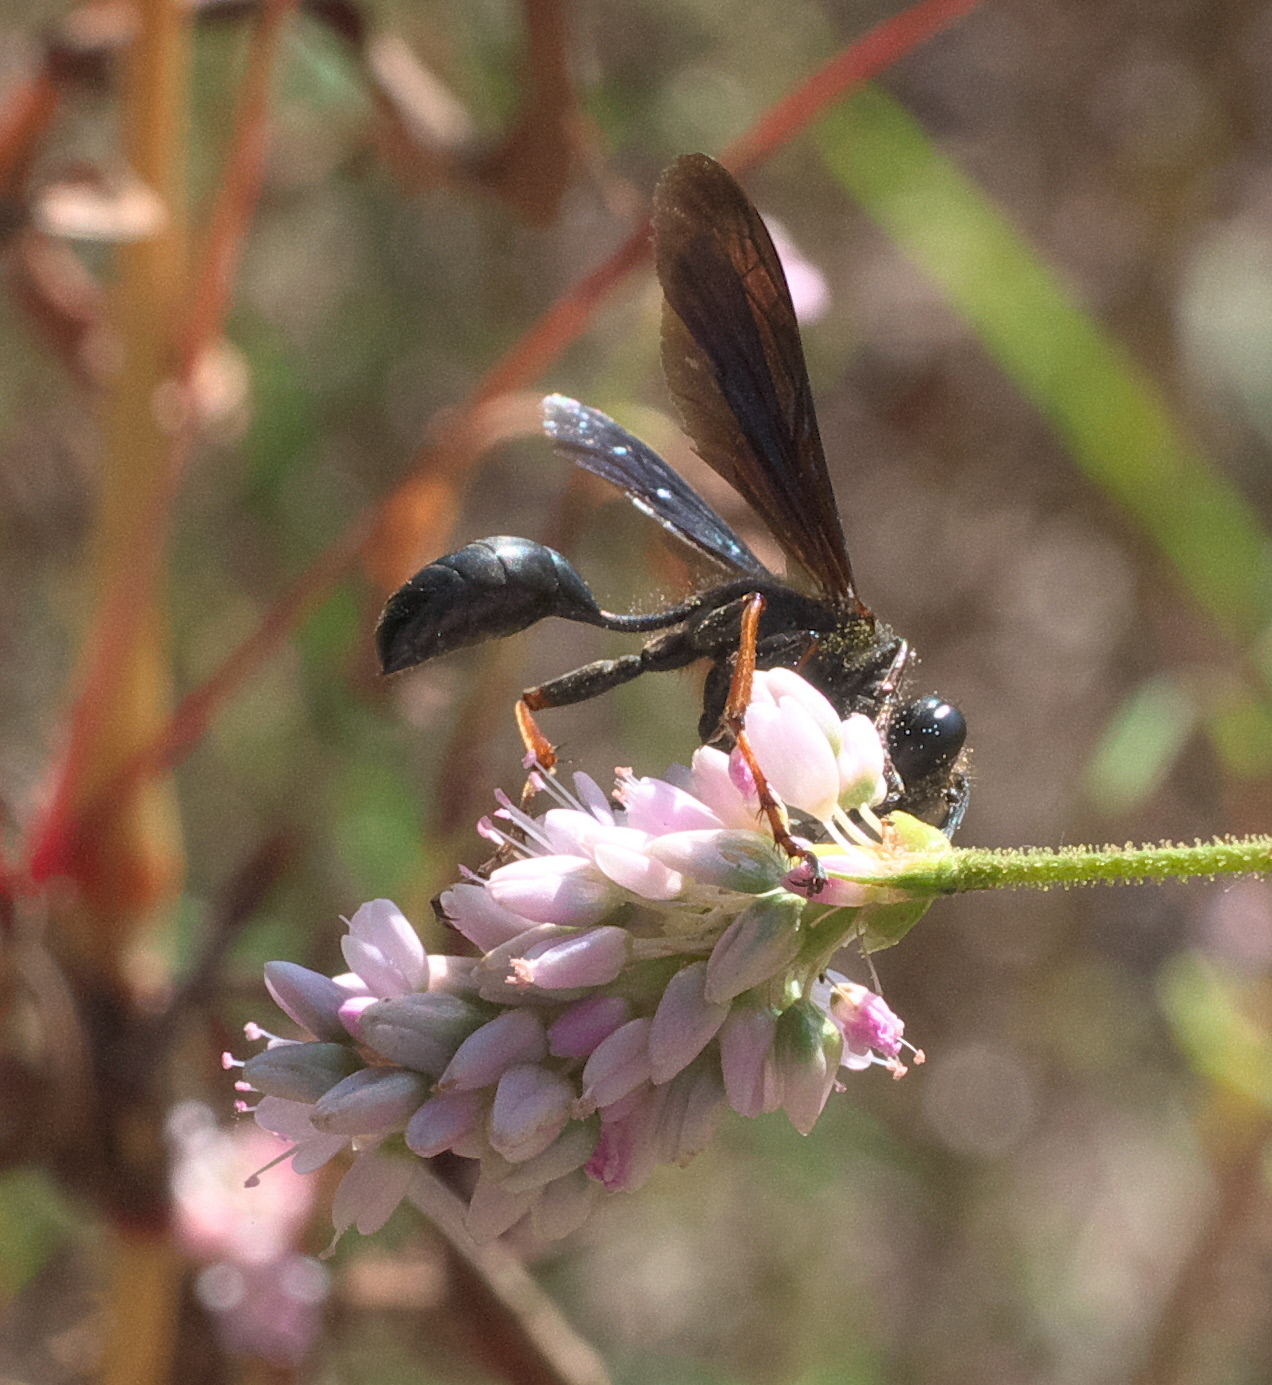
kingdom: Animalia
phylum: Arthropoda
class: Insecta
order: Hymenoptera
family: Sphecidae
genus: Isodontia
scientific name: Isodontia auripes
